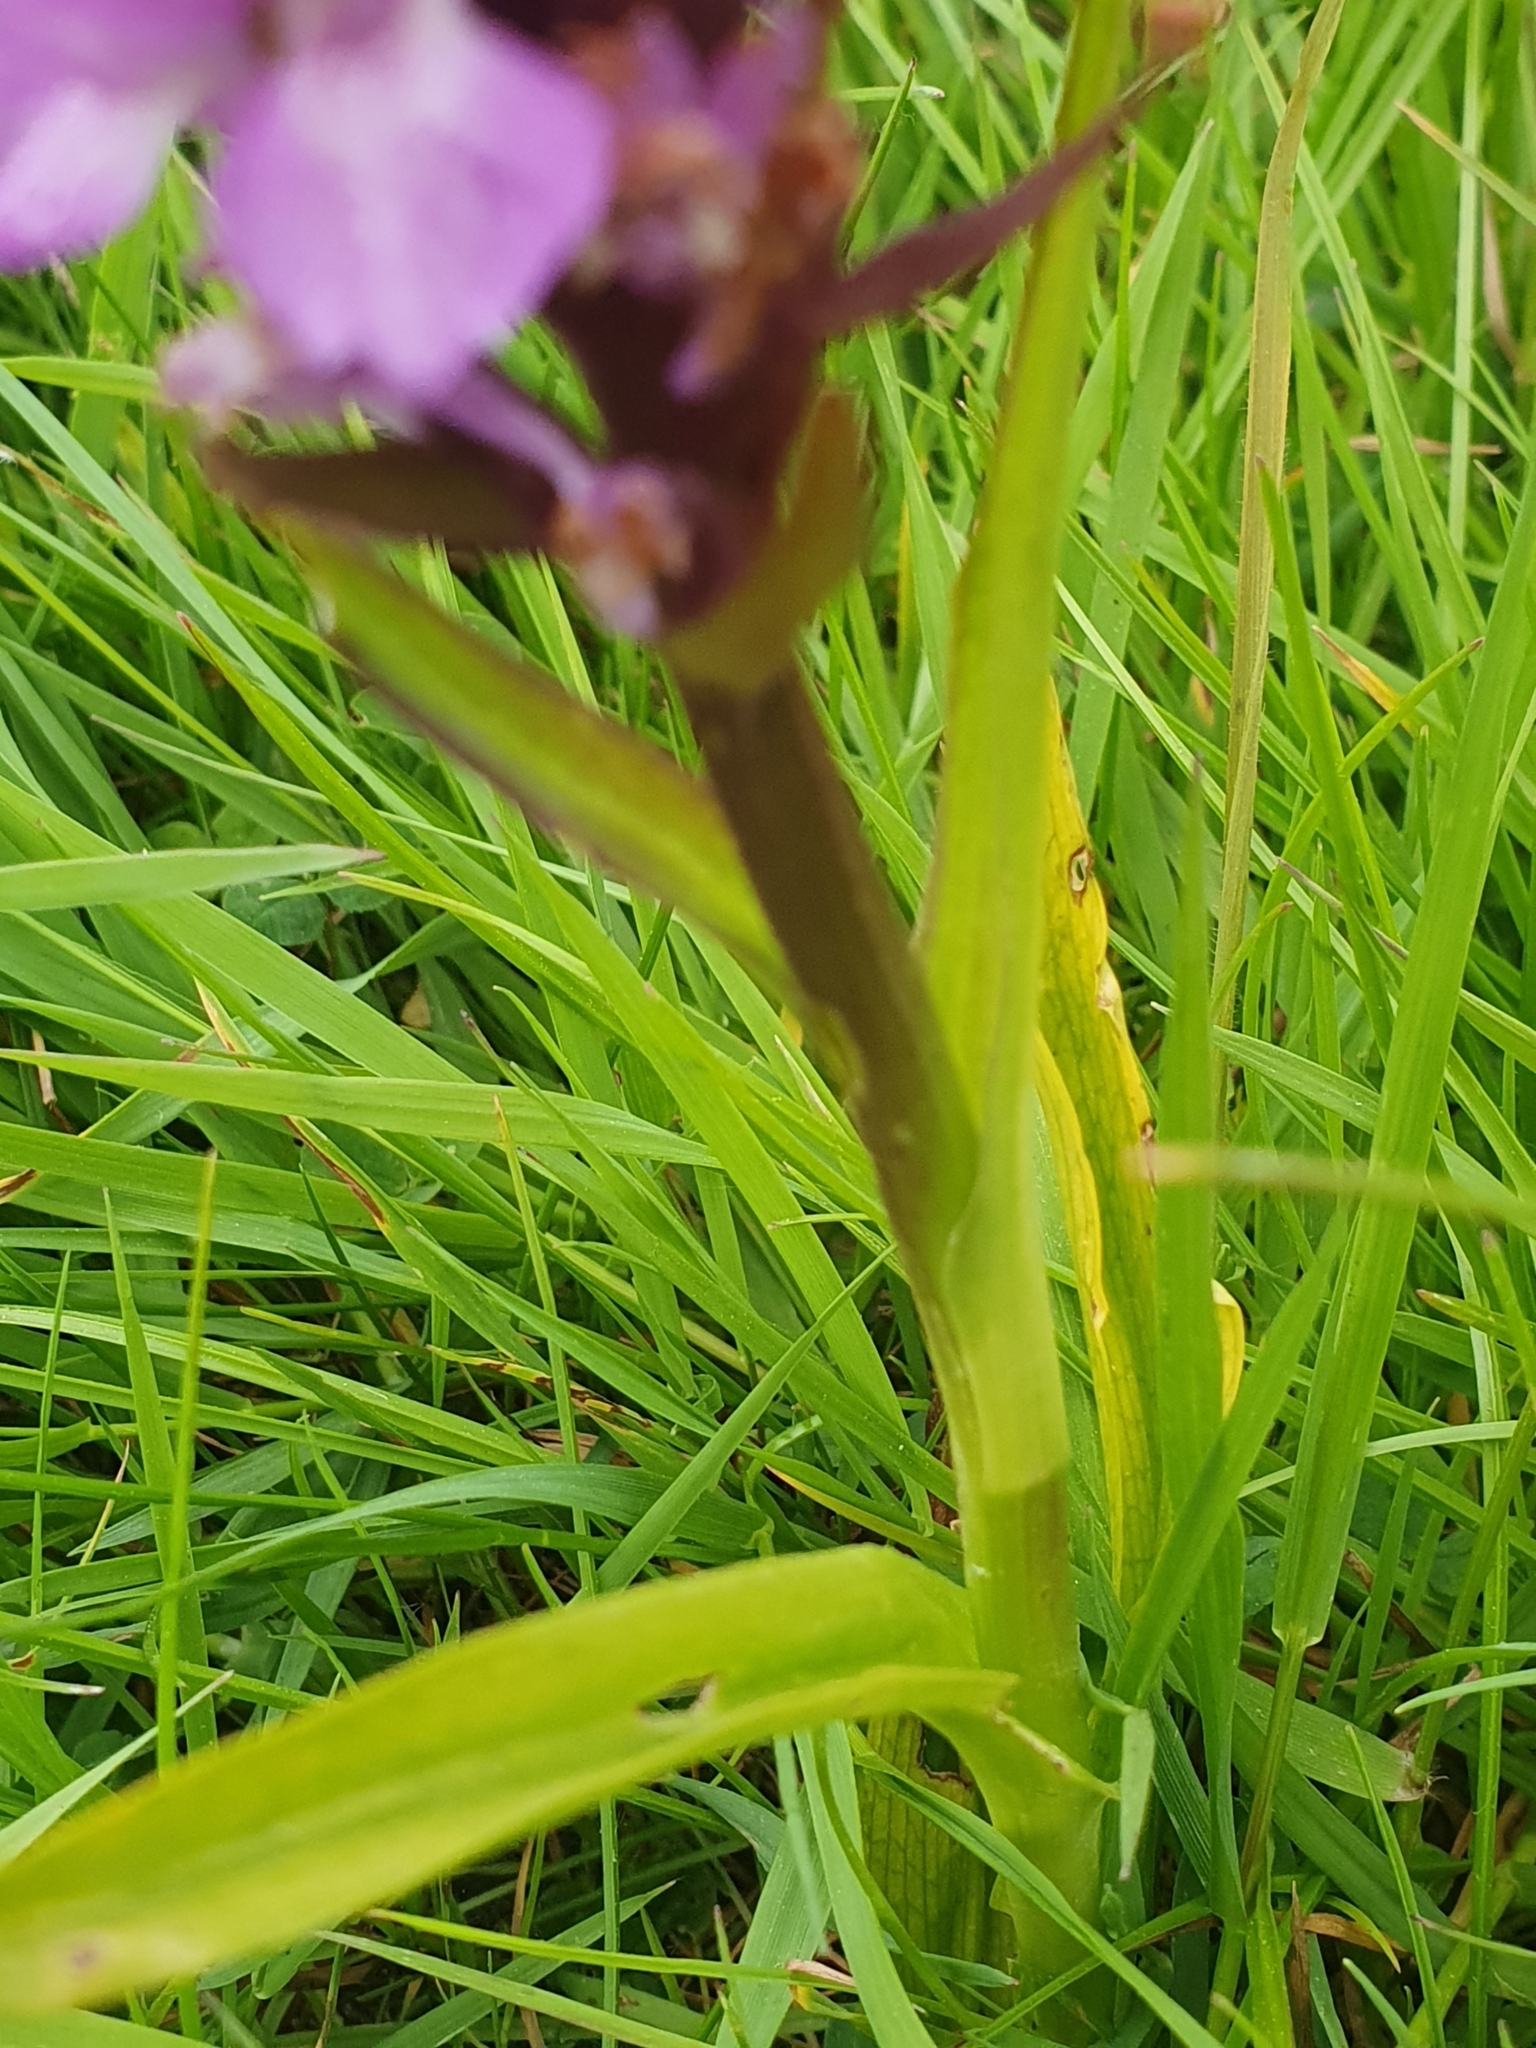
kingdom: Plantae
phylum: Tracheophyta
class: Liliopsida
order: Asparagales
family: Orchidaceae
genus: Dactylorhiza
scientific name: Dactylorhiza majalis
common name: Marsh orchid
